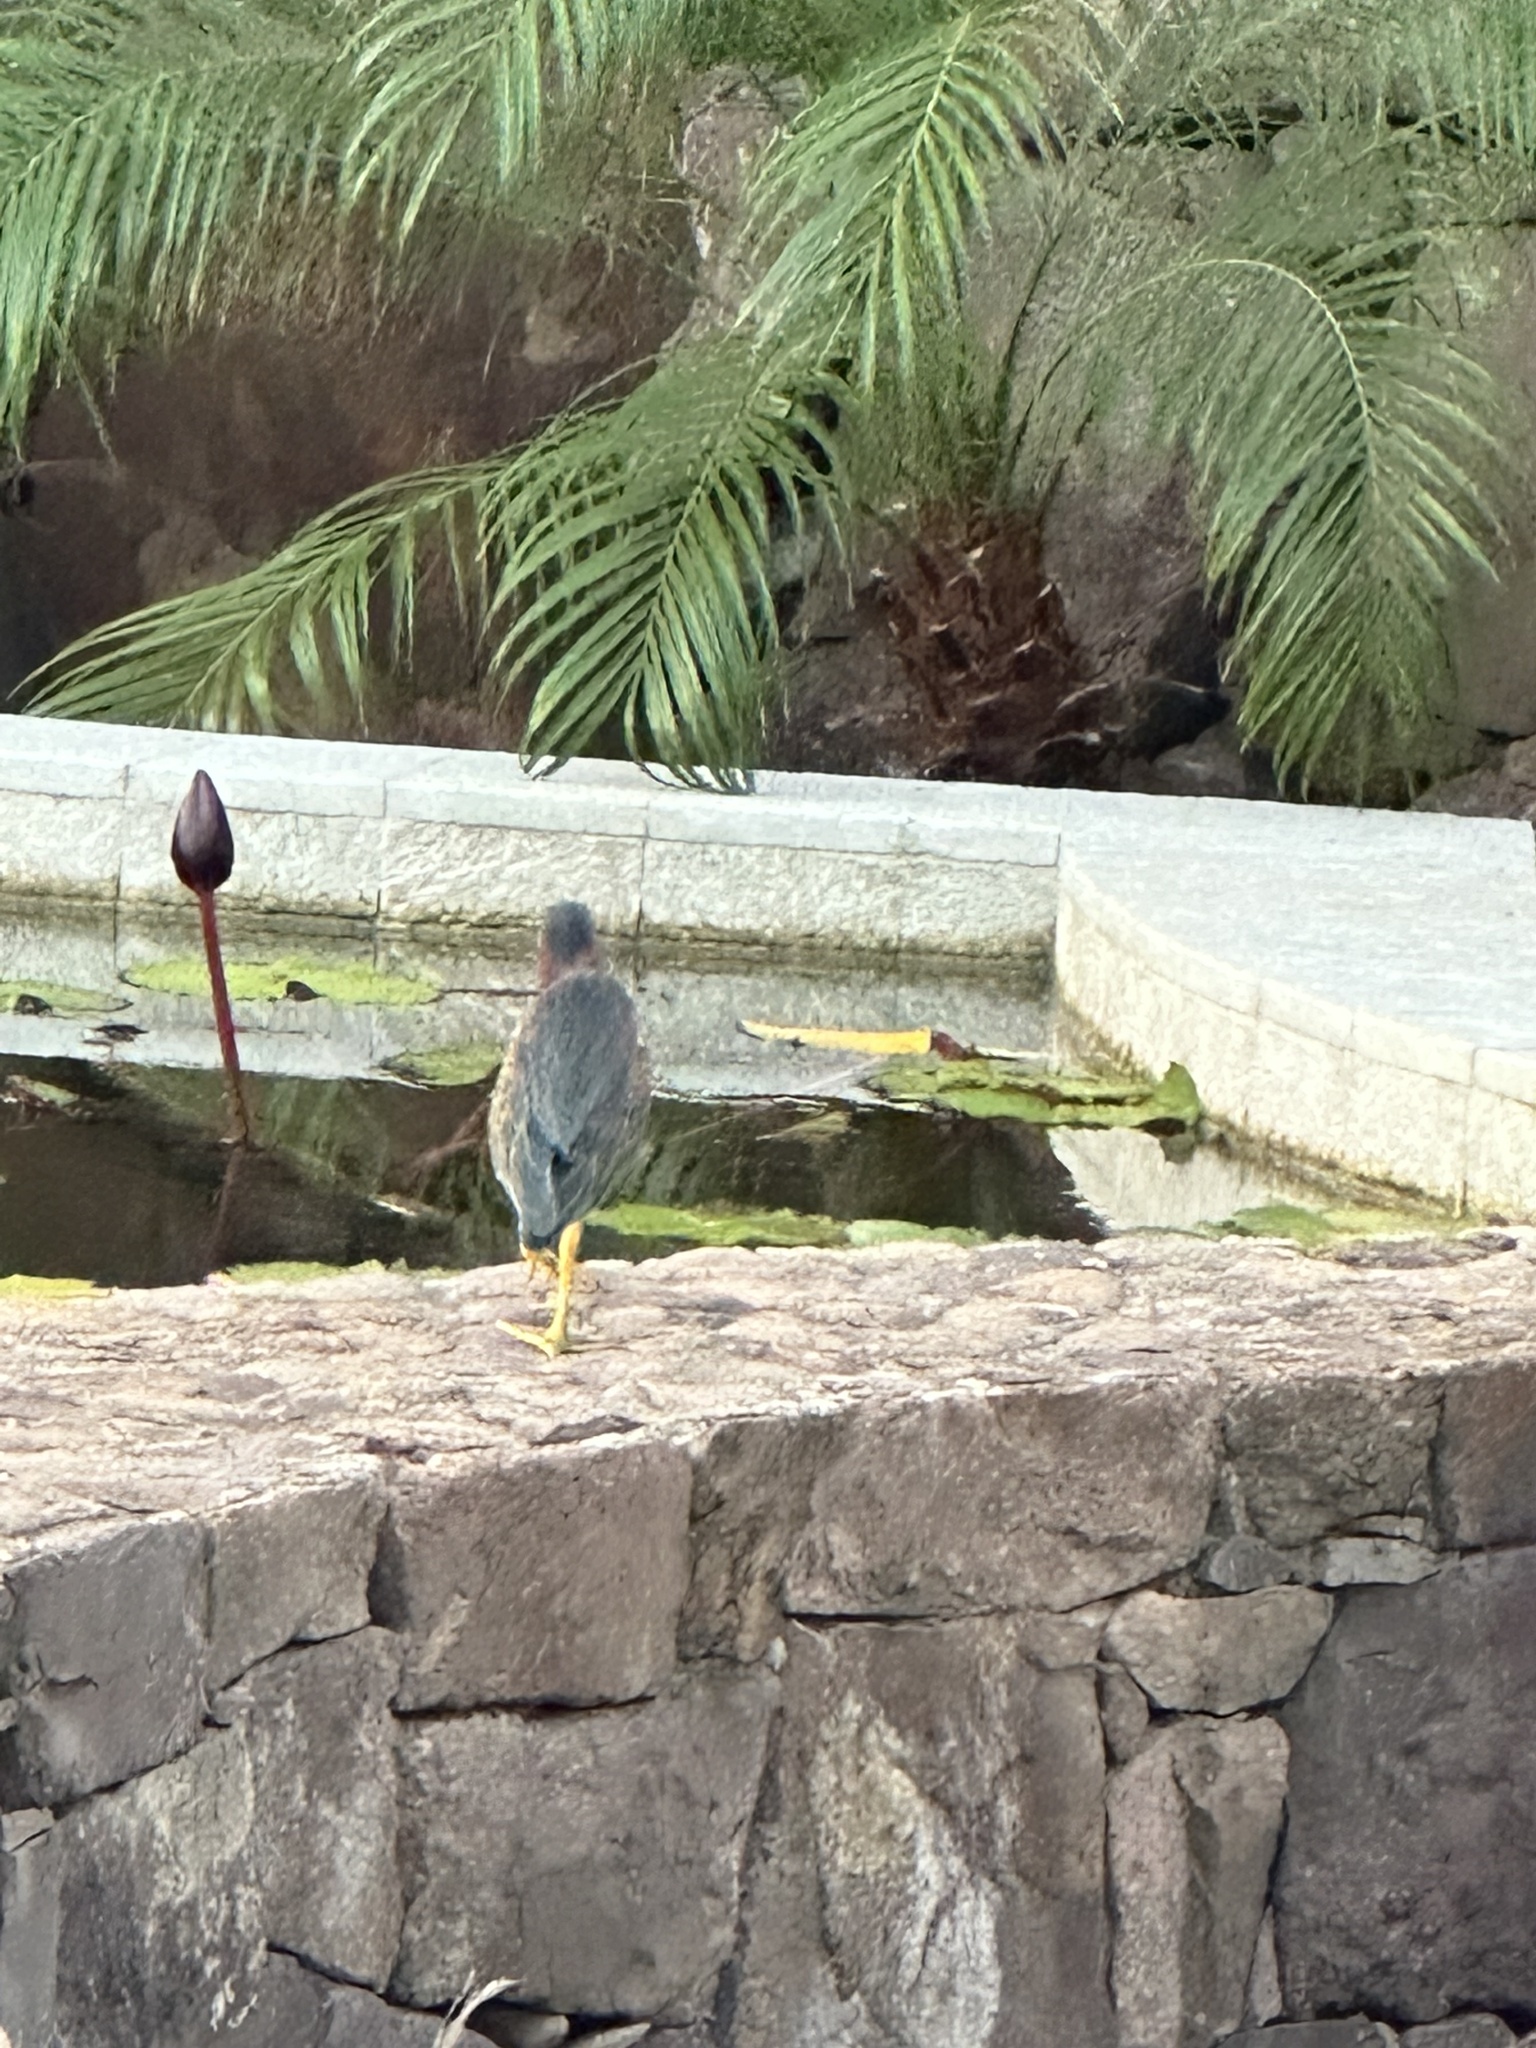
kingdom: Animalia
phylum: Chordata
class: Aves
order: Pelecaniformes
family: Ardeidae
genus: Butorides
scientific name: Butorides virescens
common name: Green heron
